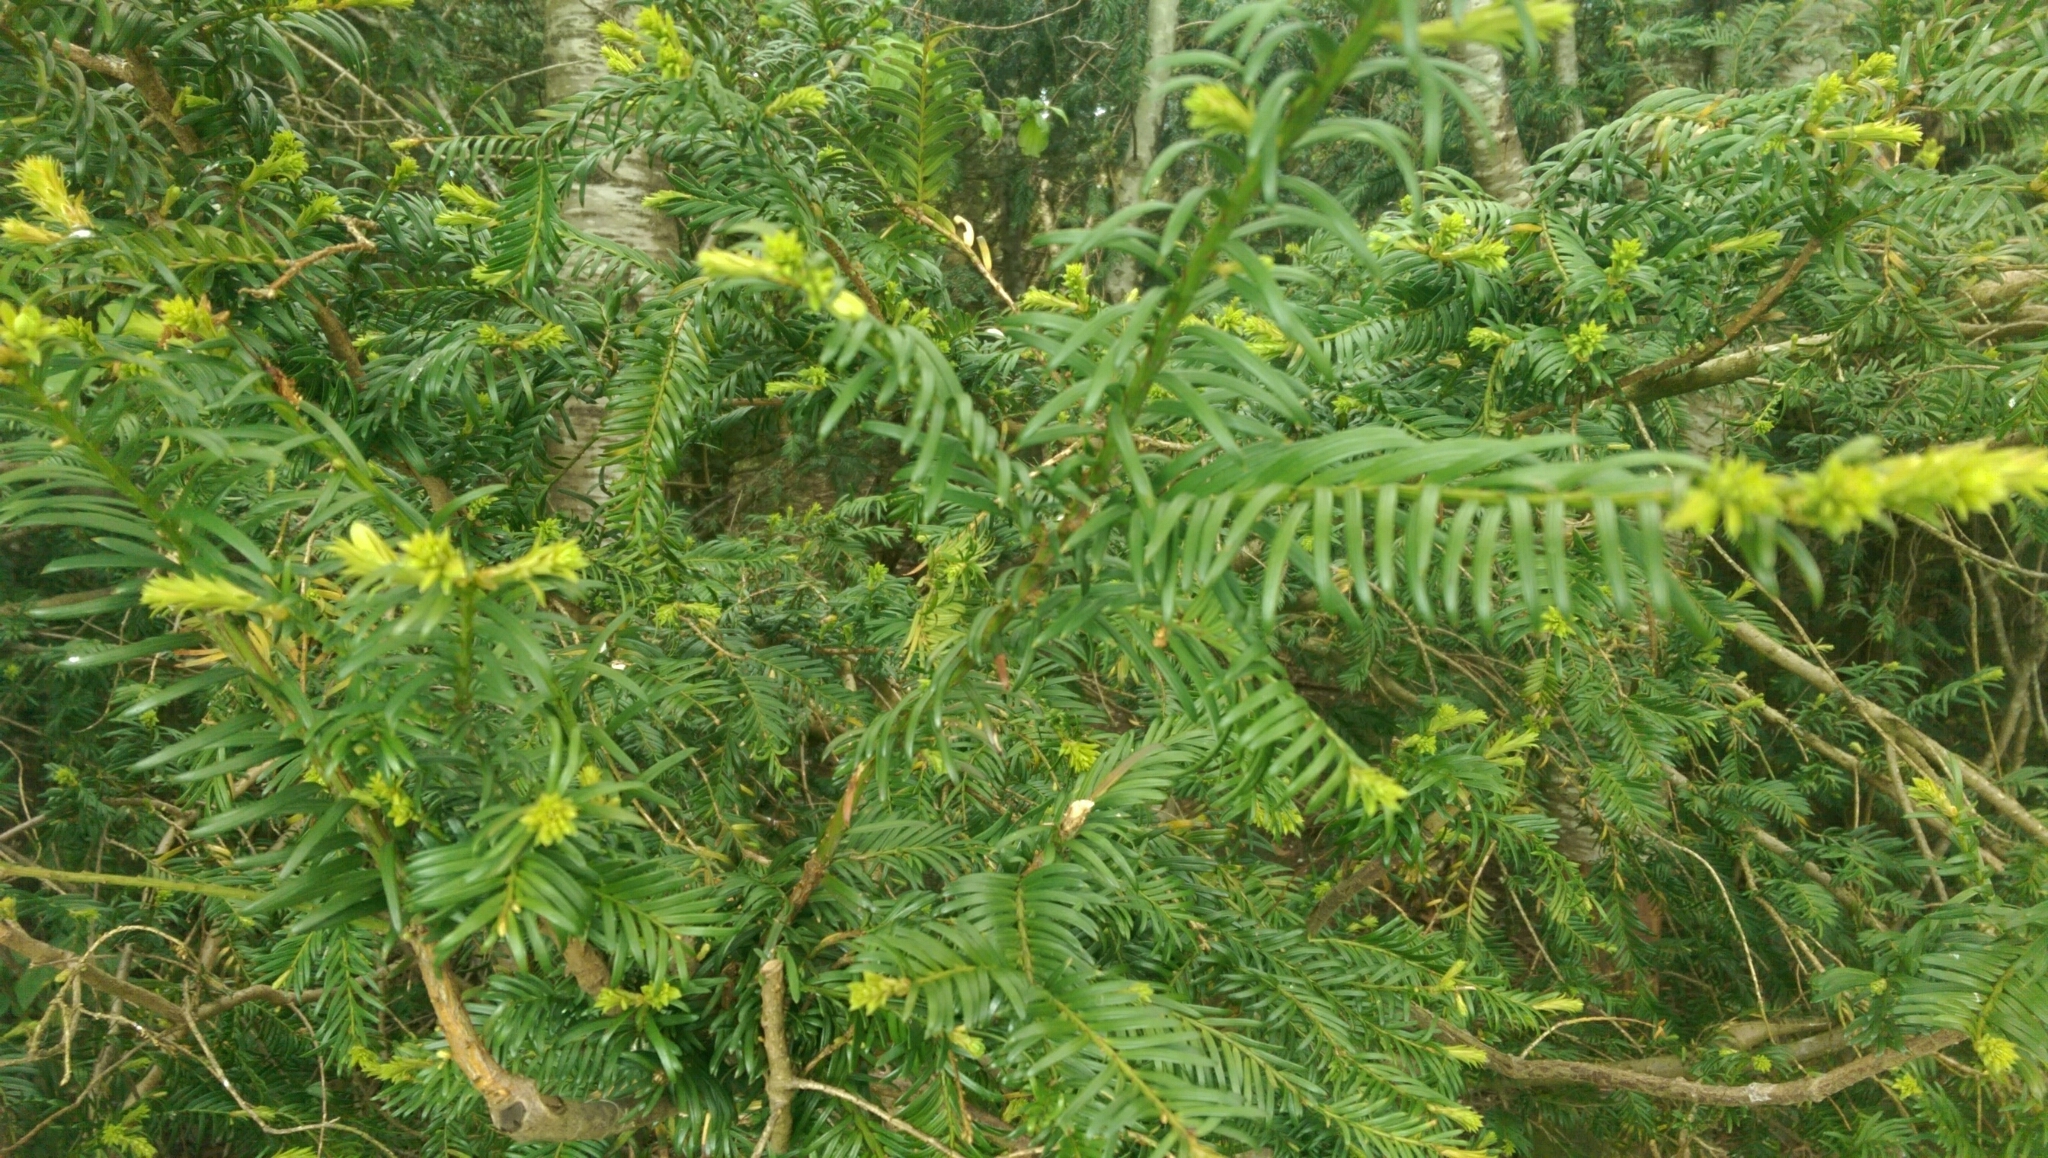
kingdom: Plantae
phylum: Tracheophyta
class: Pinopsida
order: Pinales
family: Taxaceae
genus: Taxus
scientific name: Taxus baccata
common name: Yew
